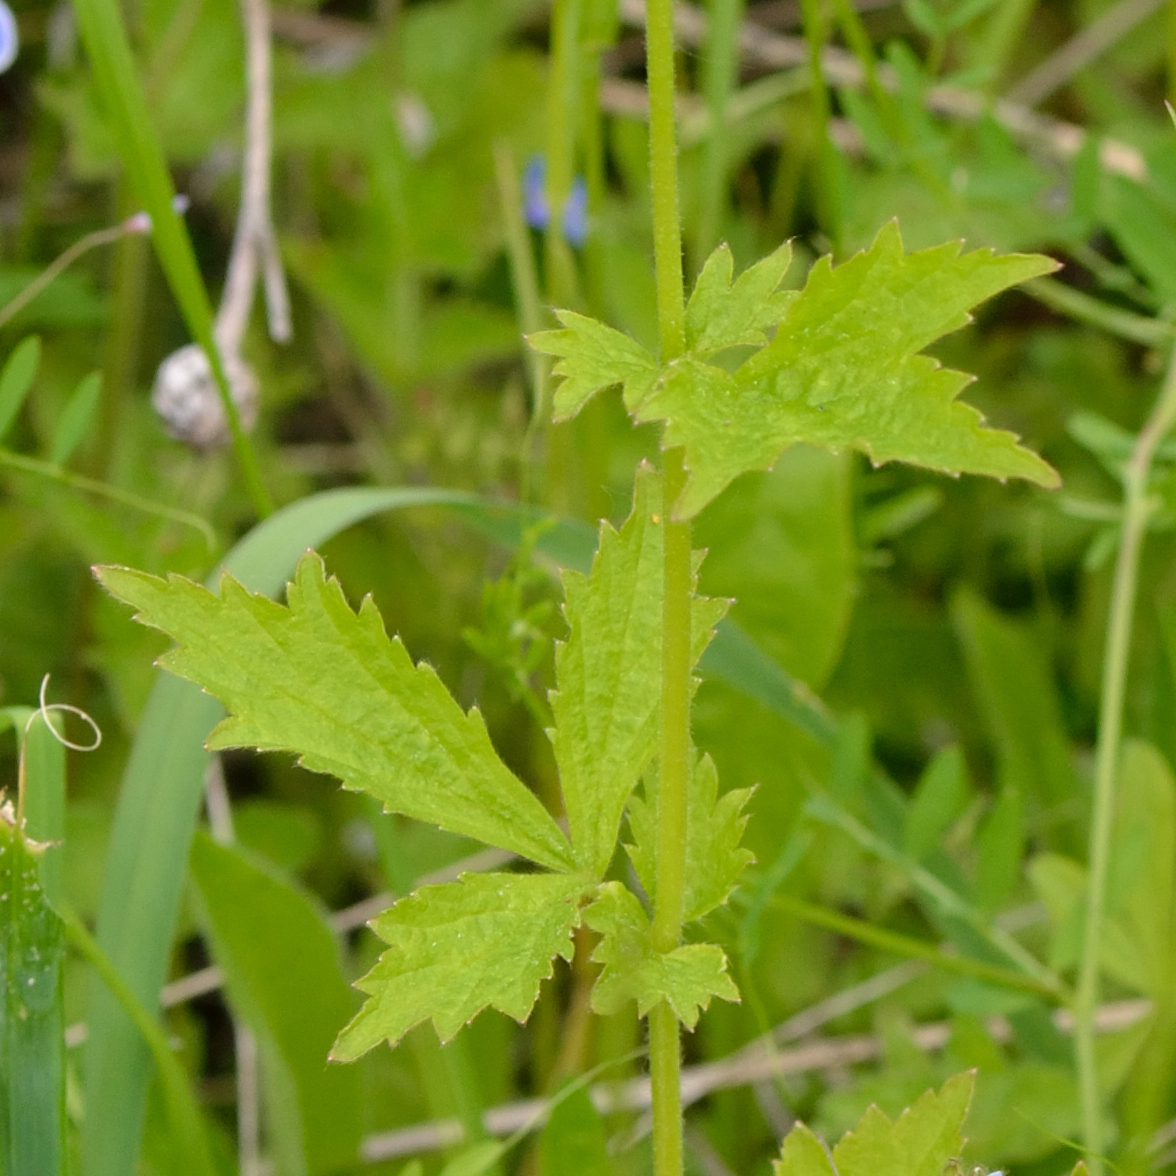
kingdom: Plantae
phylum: Tracheophyta
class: Magnoliopsida
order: Rosales
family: Rosaceae
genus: Geum
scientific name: Geum urbanum
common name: Wood avens
